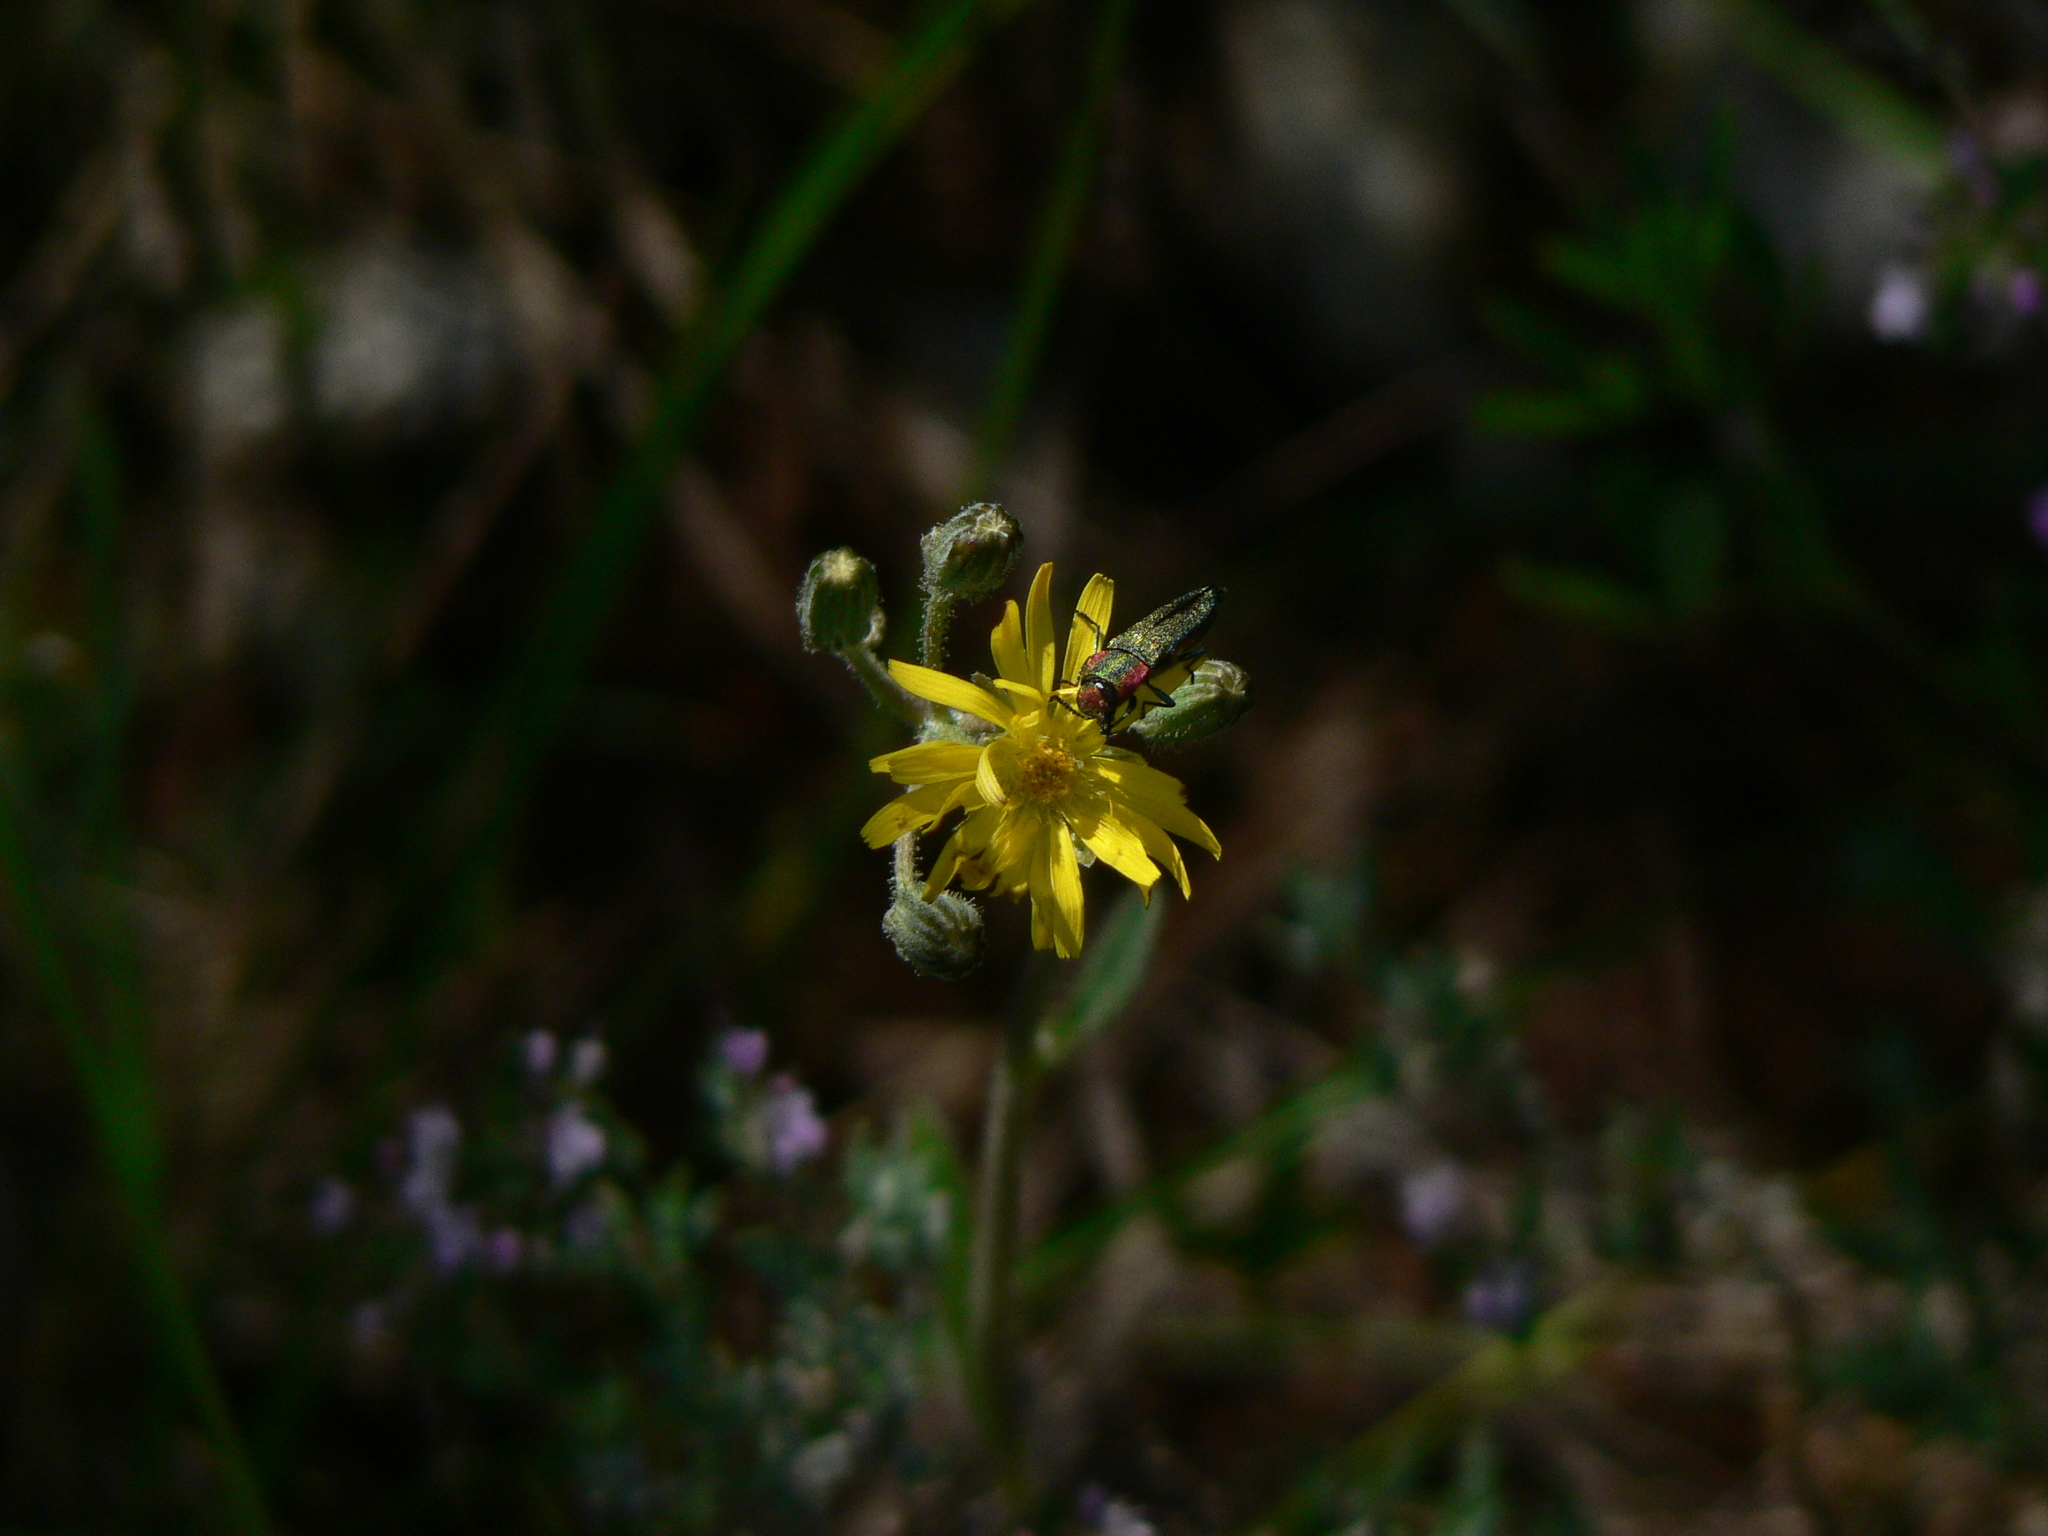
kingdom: Animalia
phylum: Arthropoda
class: Insecta
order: Coleoptera
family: Buprestidae
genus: Anthaxia
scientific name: Anthaxia hungarica
